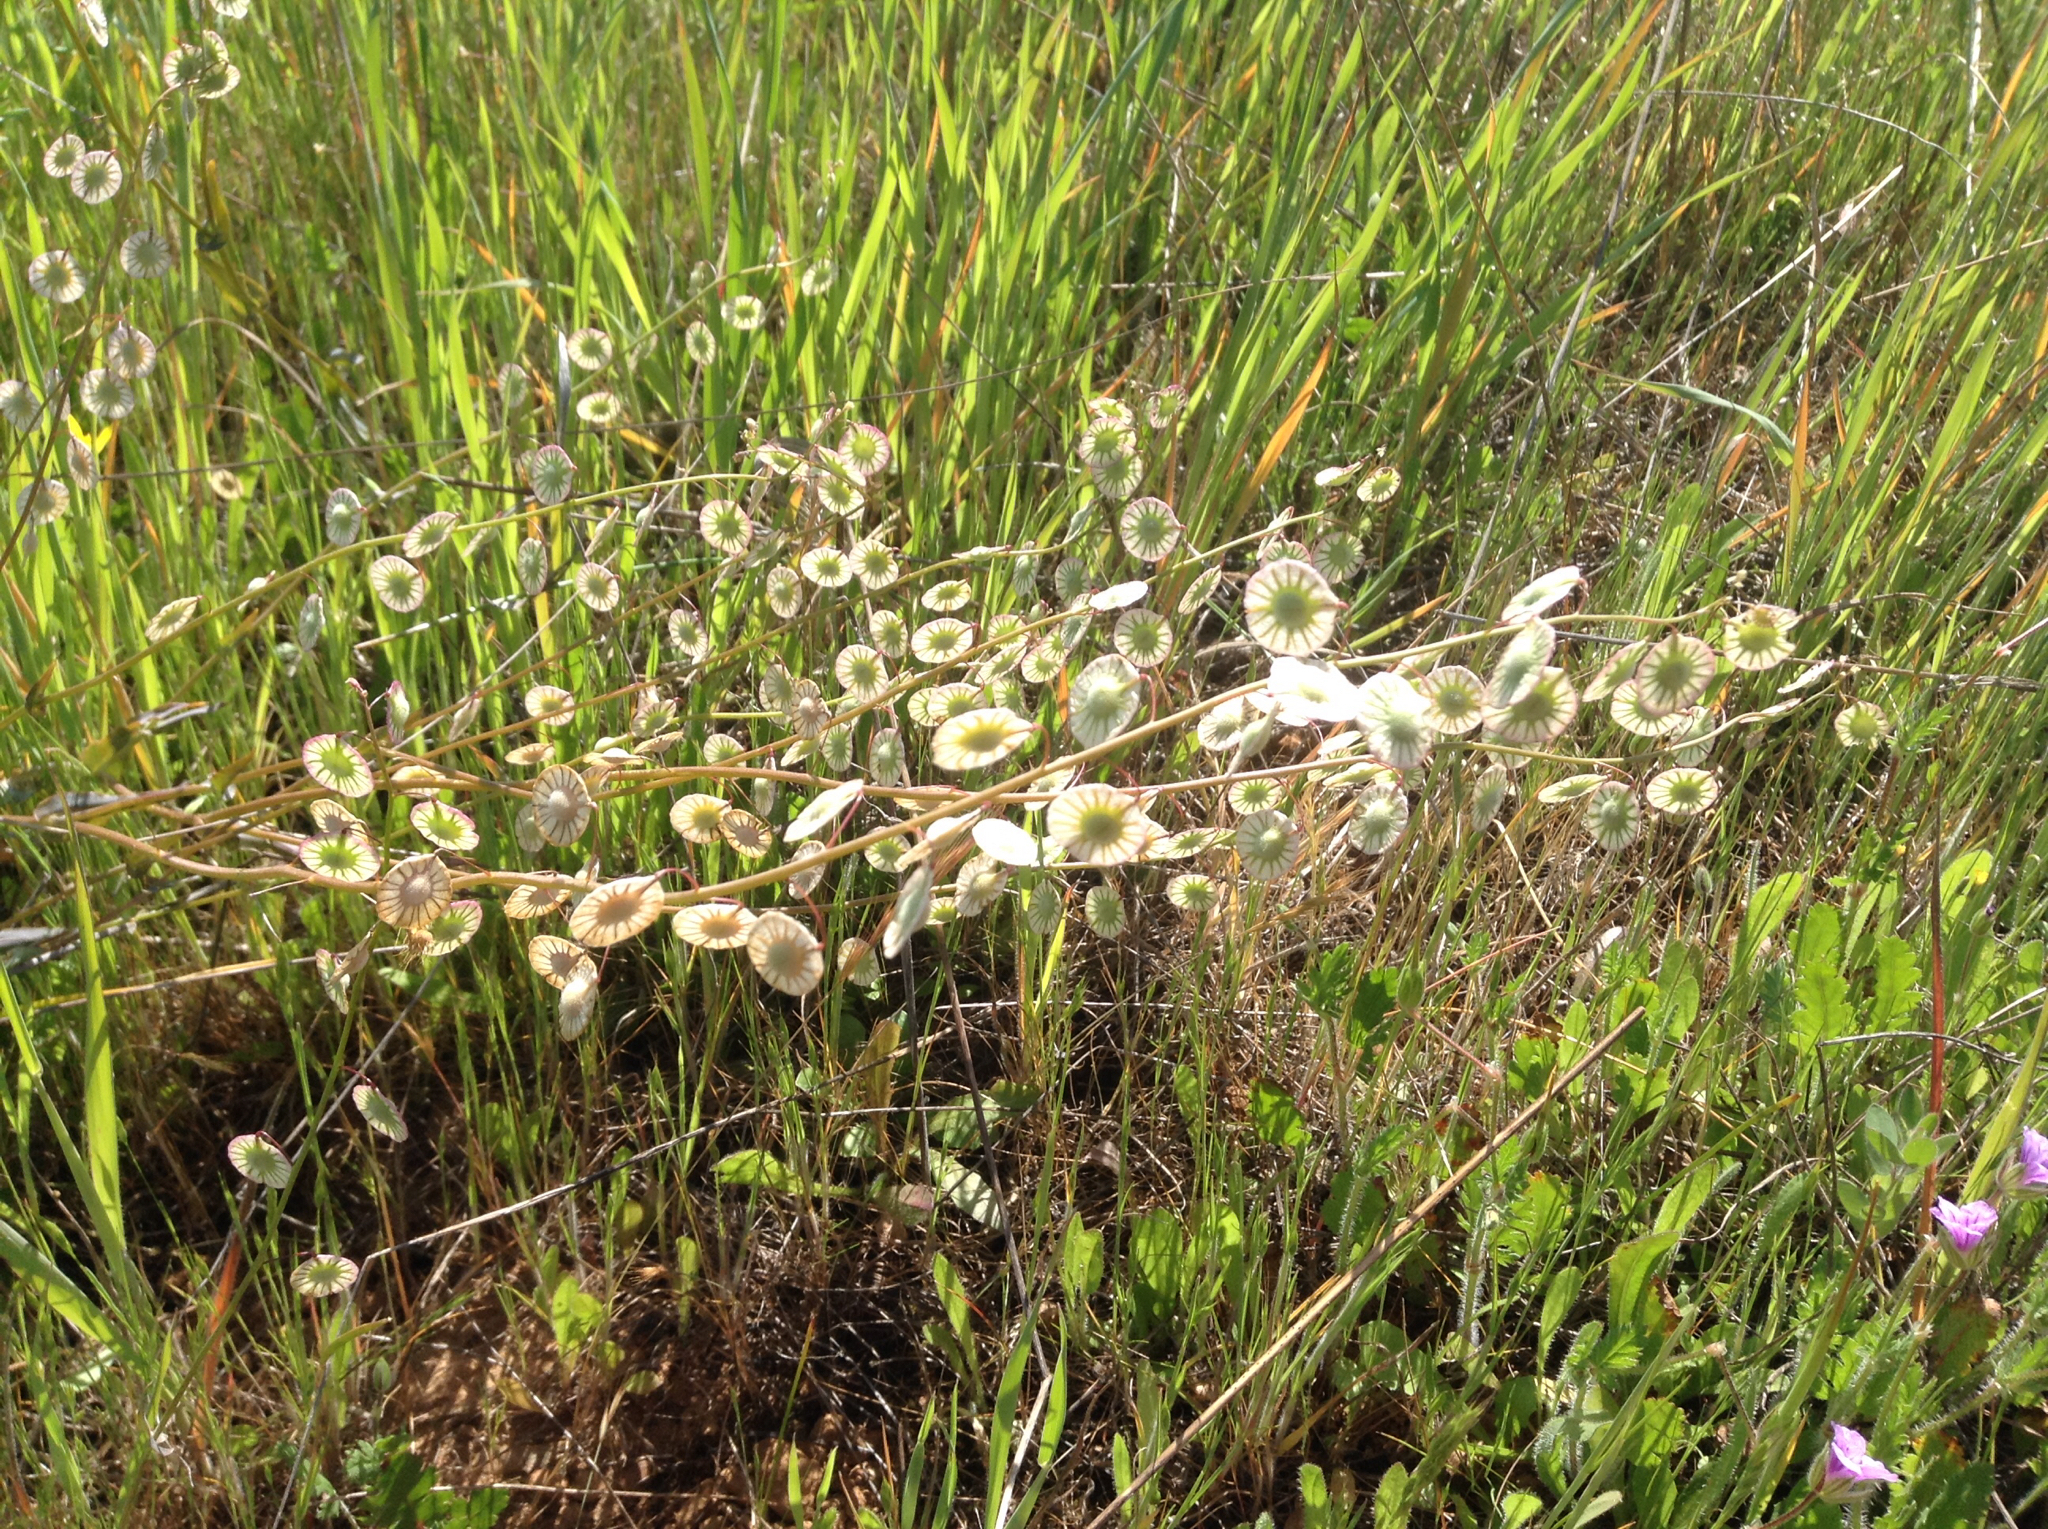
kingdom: Plantae
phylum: Tracheophyta
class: Magnoliopsida
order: Brassicales
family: Brassicaceae
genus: Thysanocarpus
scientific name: Thysanocarpus radians
